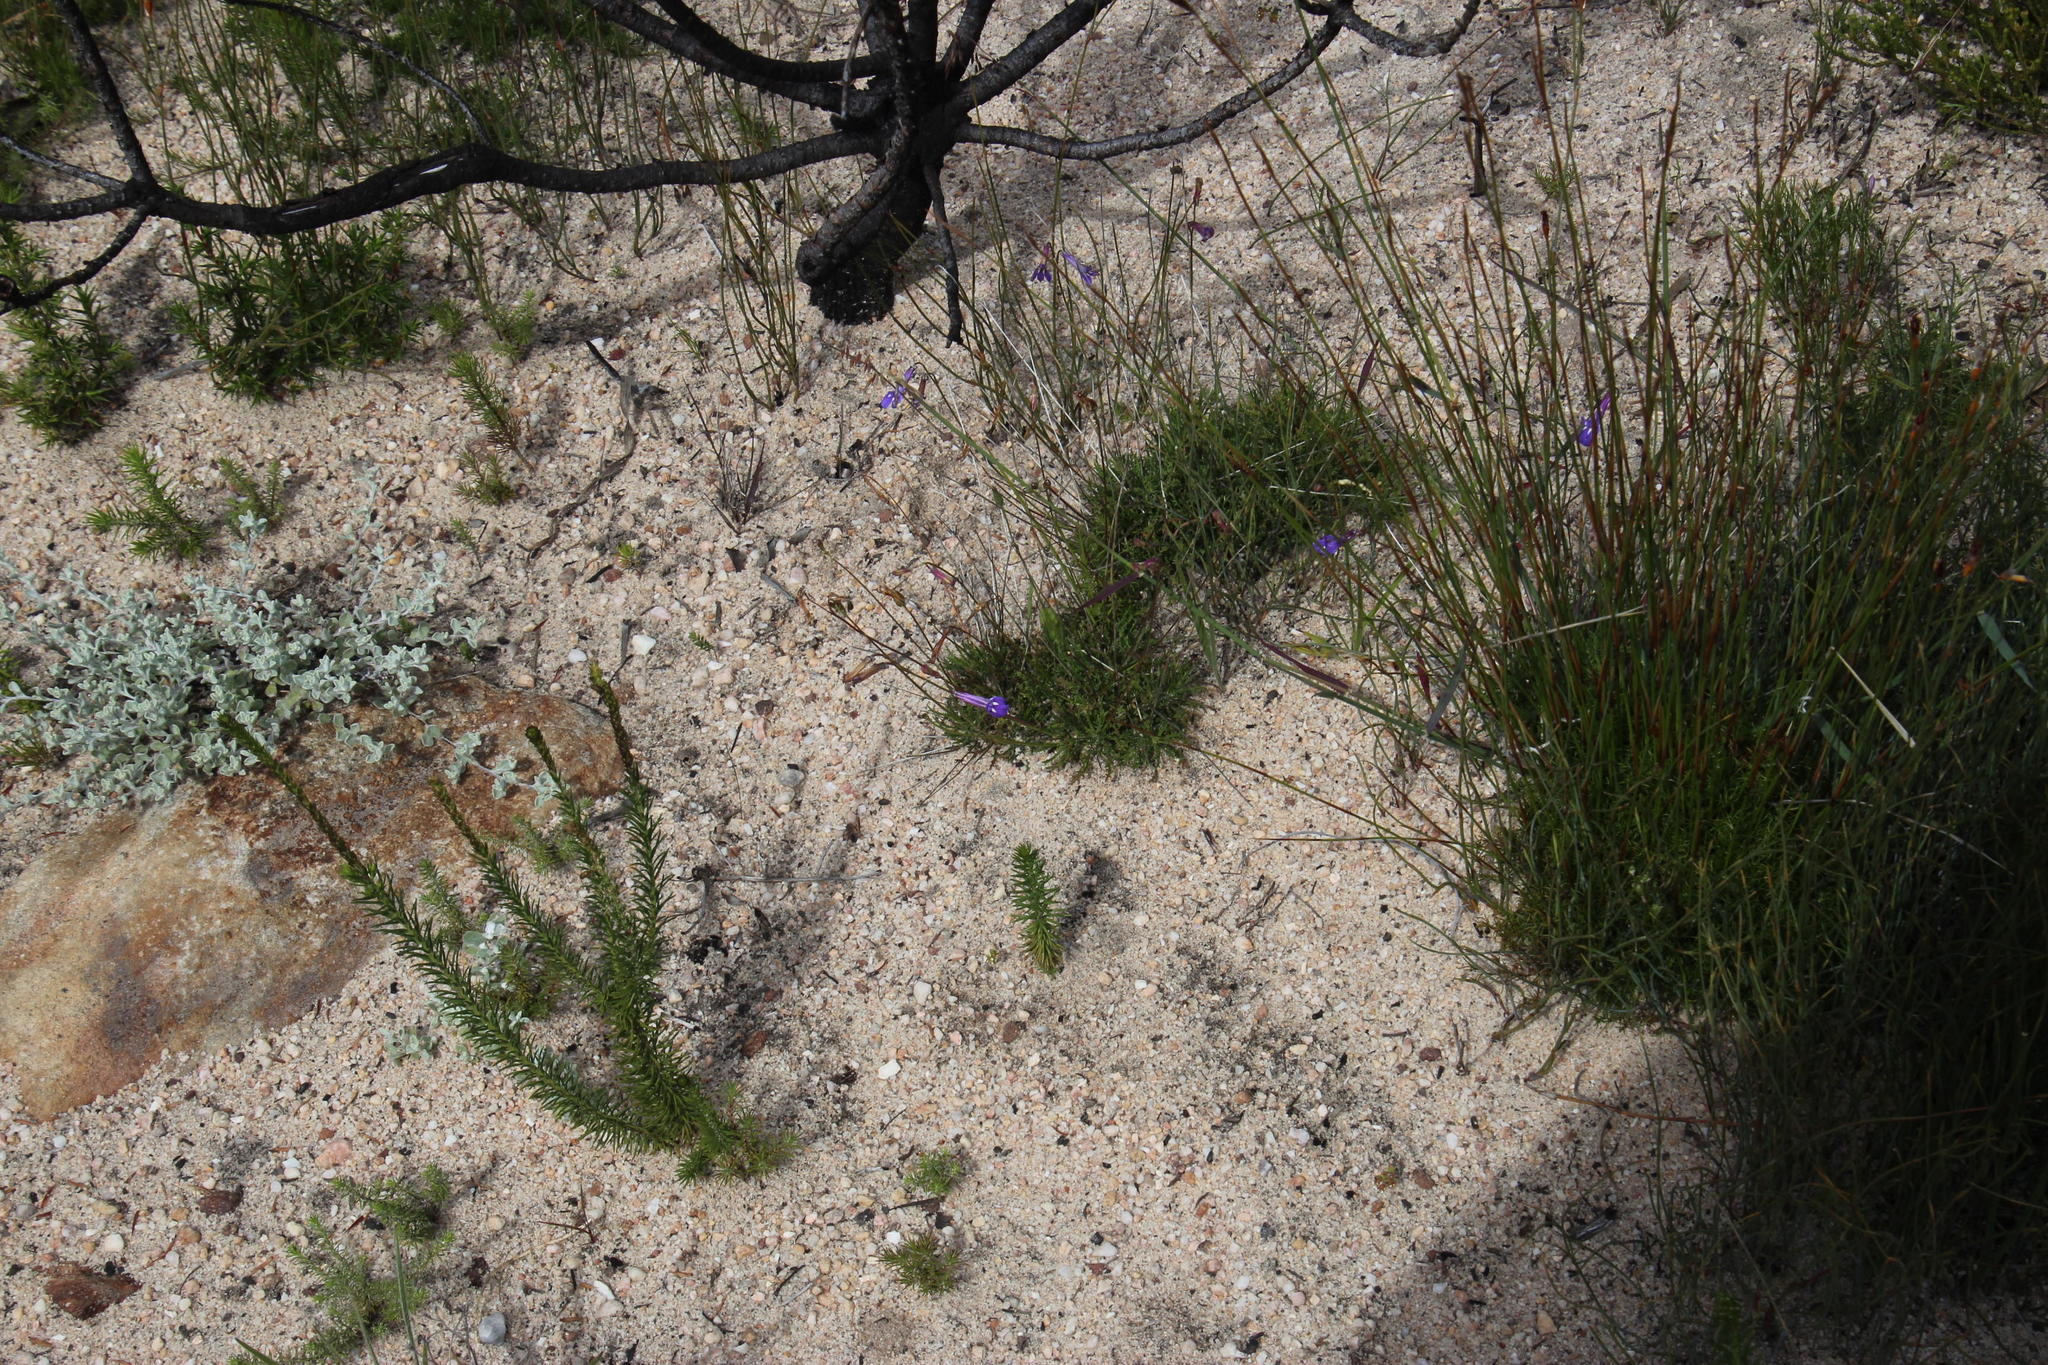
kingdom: Plantae
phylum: Tracheophyta
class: Magnoliopsida
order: Asterales
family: Campanulaceae
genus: Lobelia
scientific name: Lobelia coronopifolia
